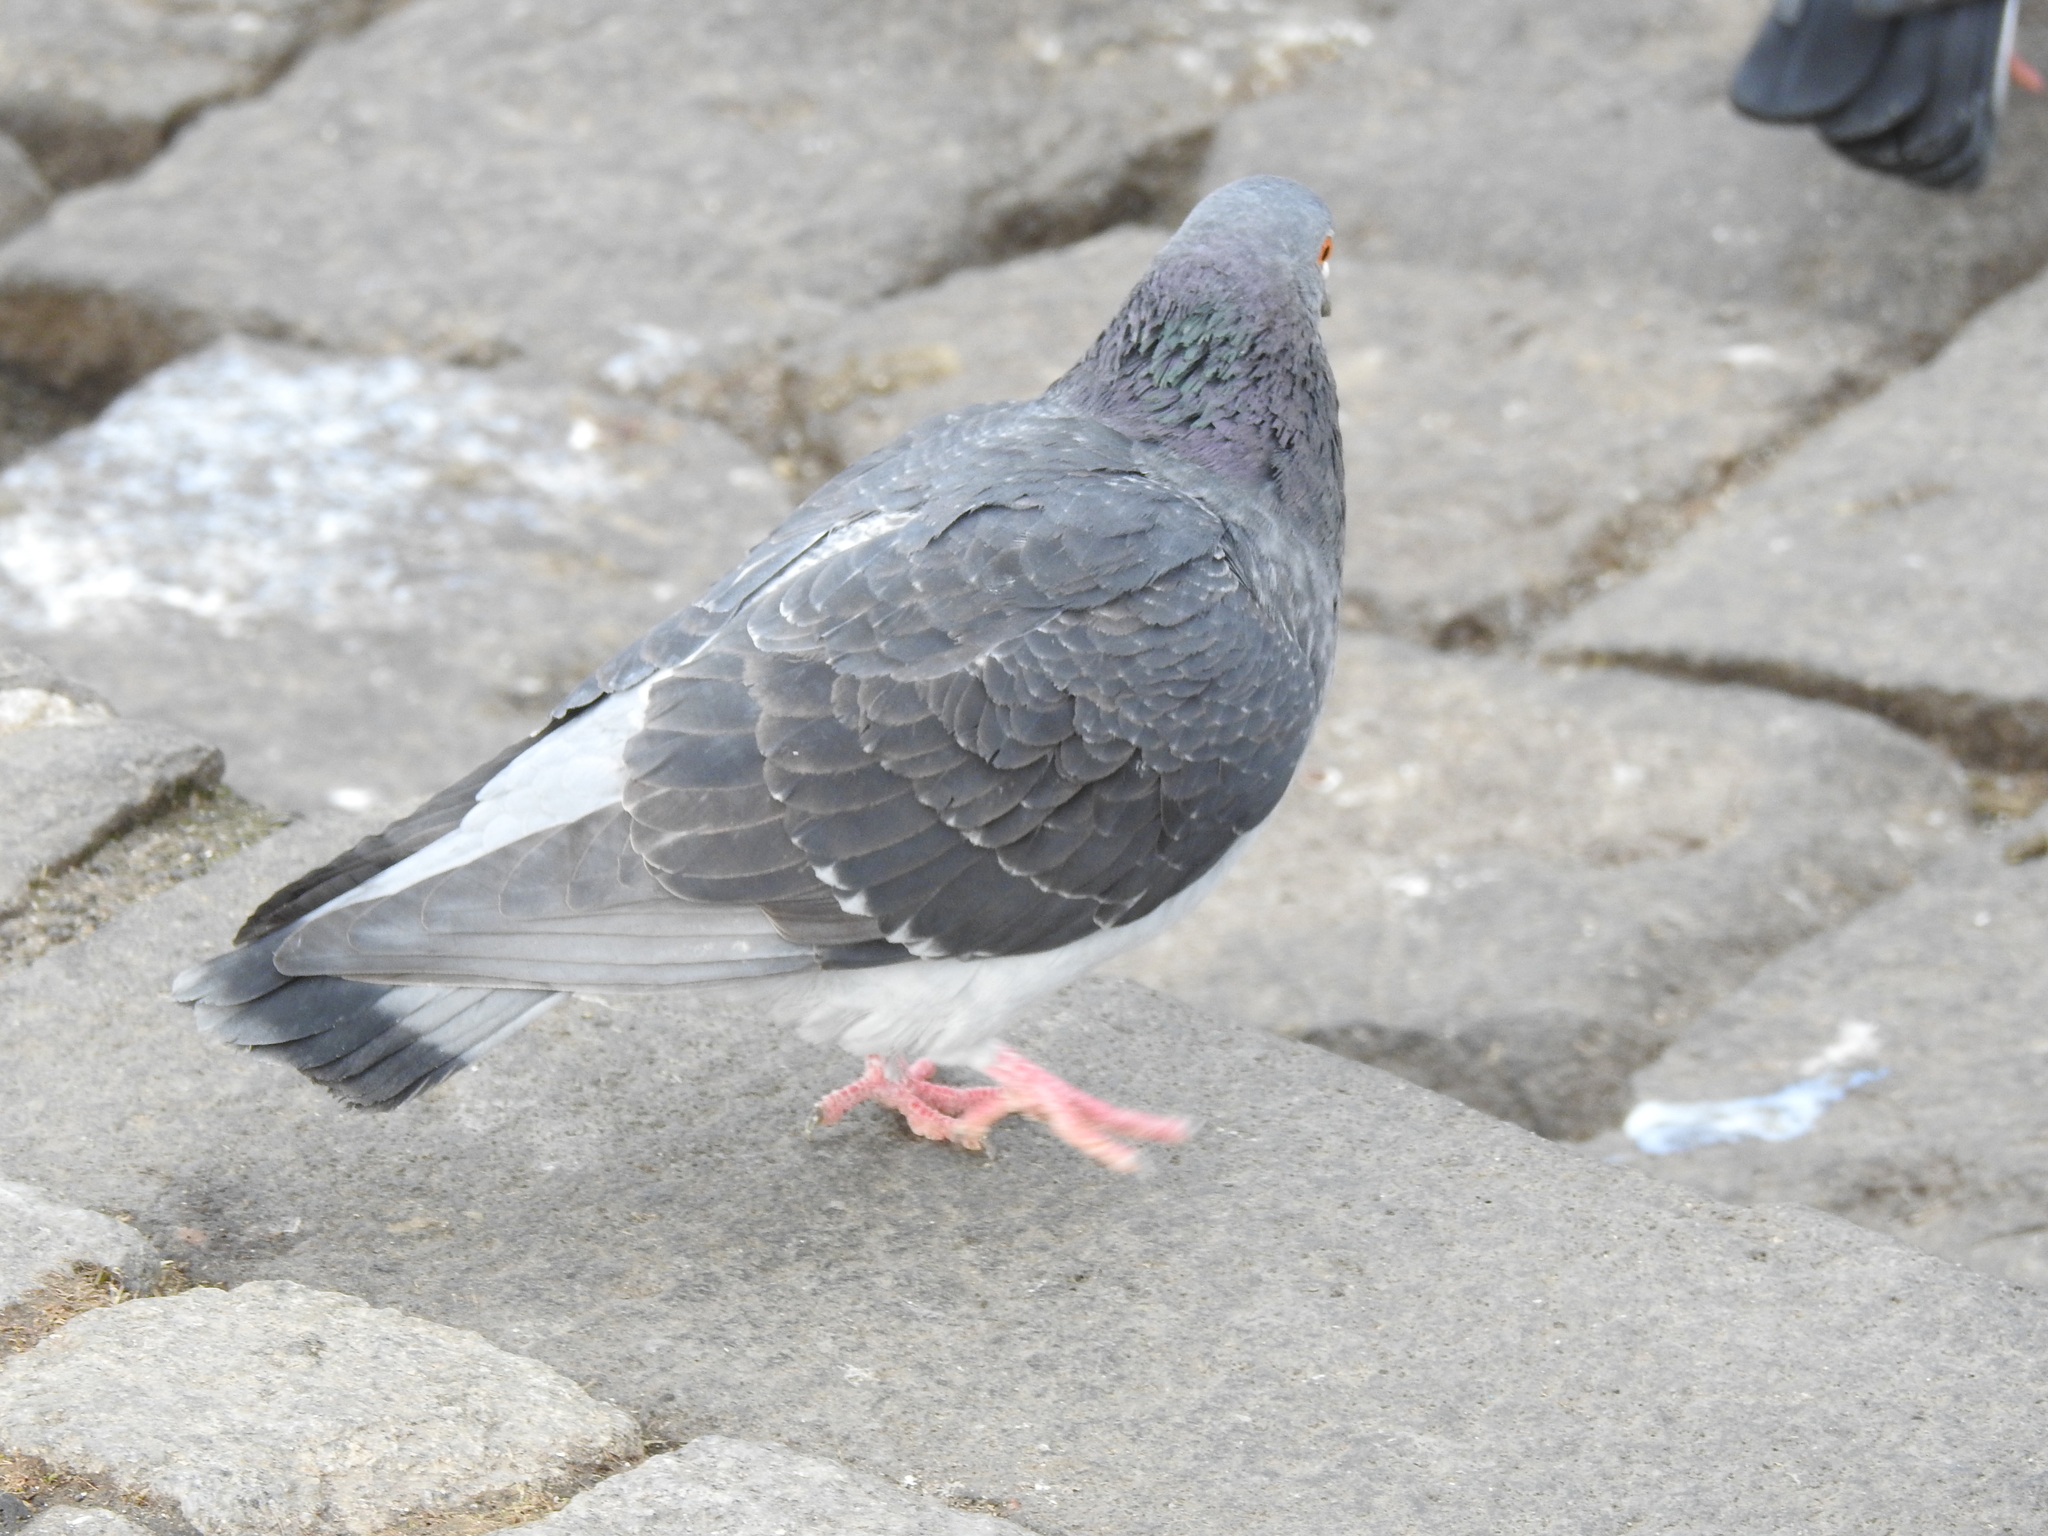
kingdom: Animalia
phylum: Chordata
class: Aves
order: Columbiformes
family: Columbidae
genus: Columba
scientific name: Columba livia
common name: Rock pigeon
